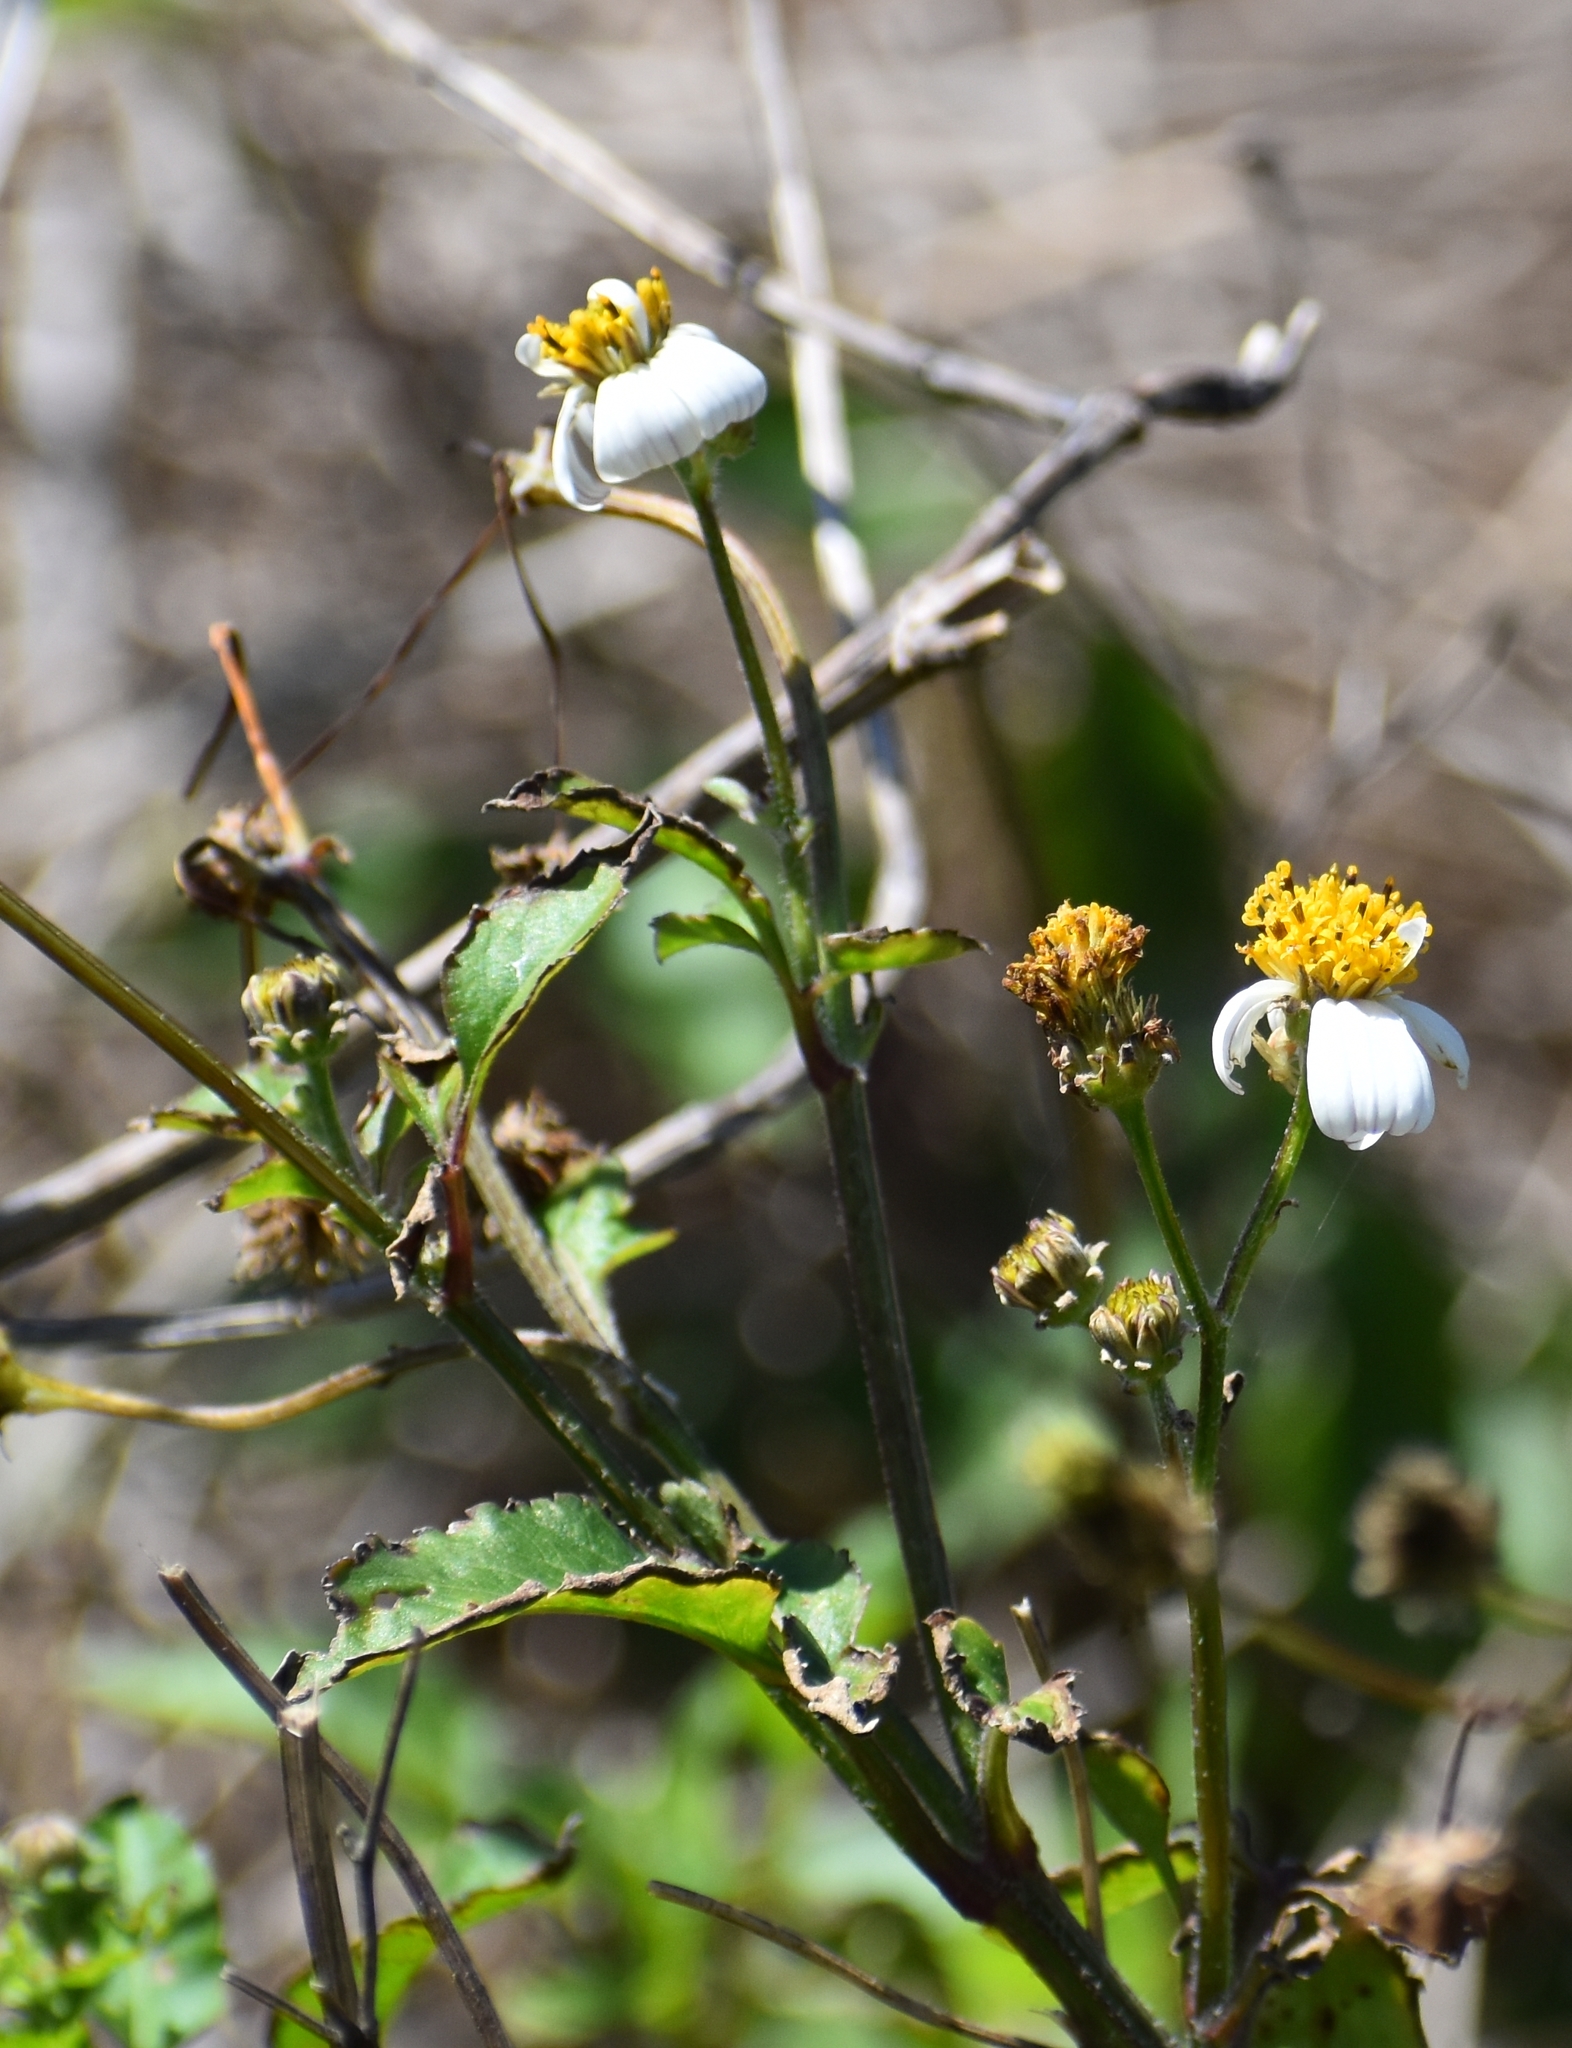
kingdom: Plantae
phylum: Tracheophyta
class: Magnoliopsida
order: Asterales
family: Asteraceae
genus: Bidens
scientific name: Bidens alba
